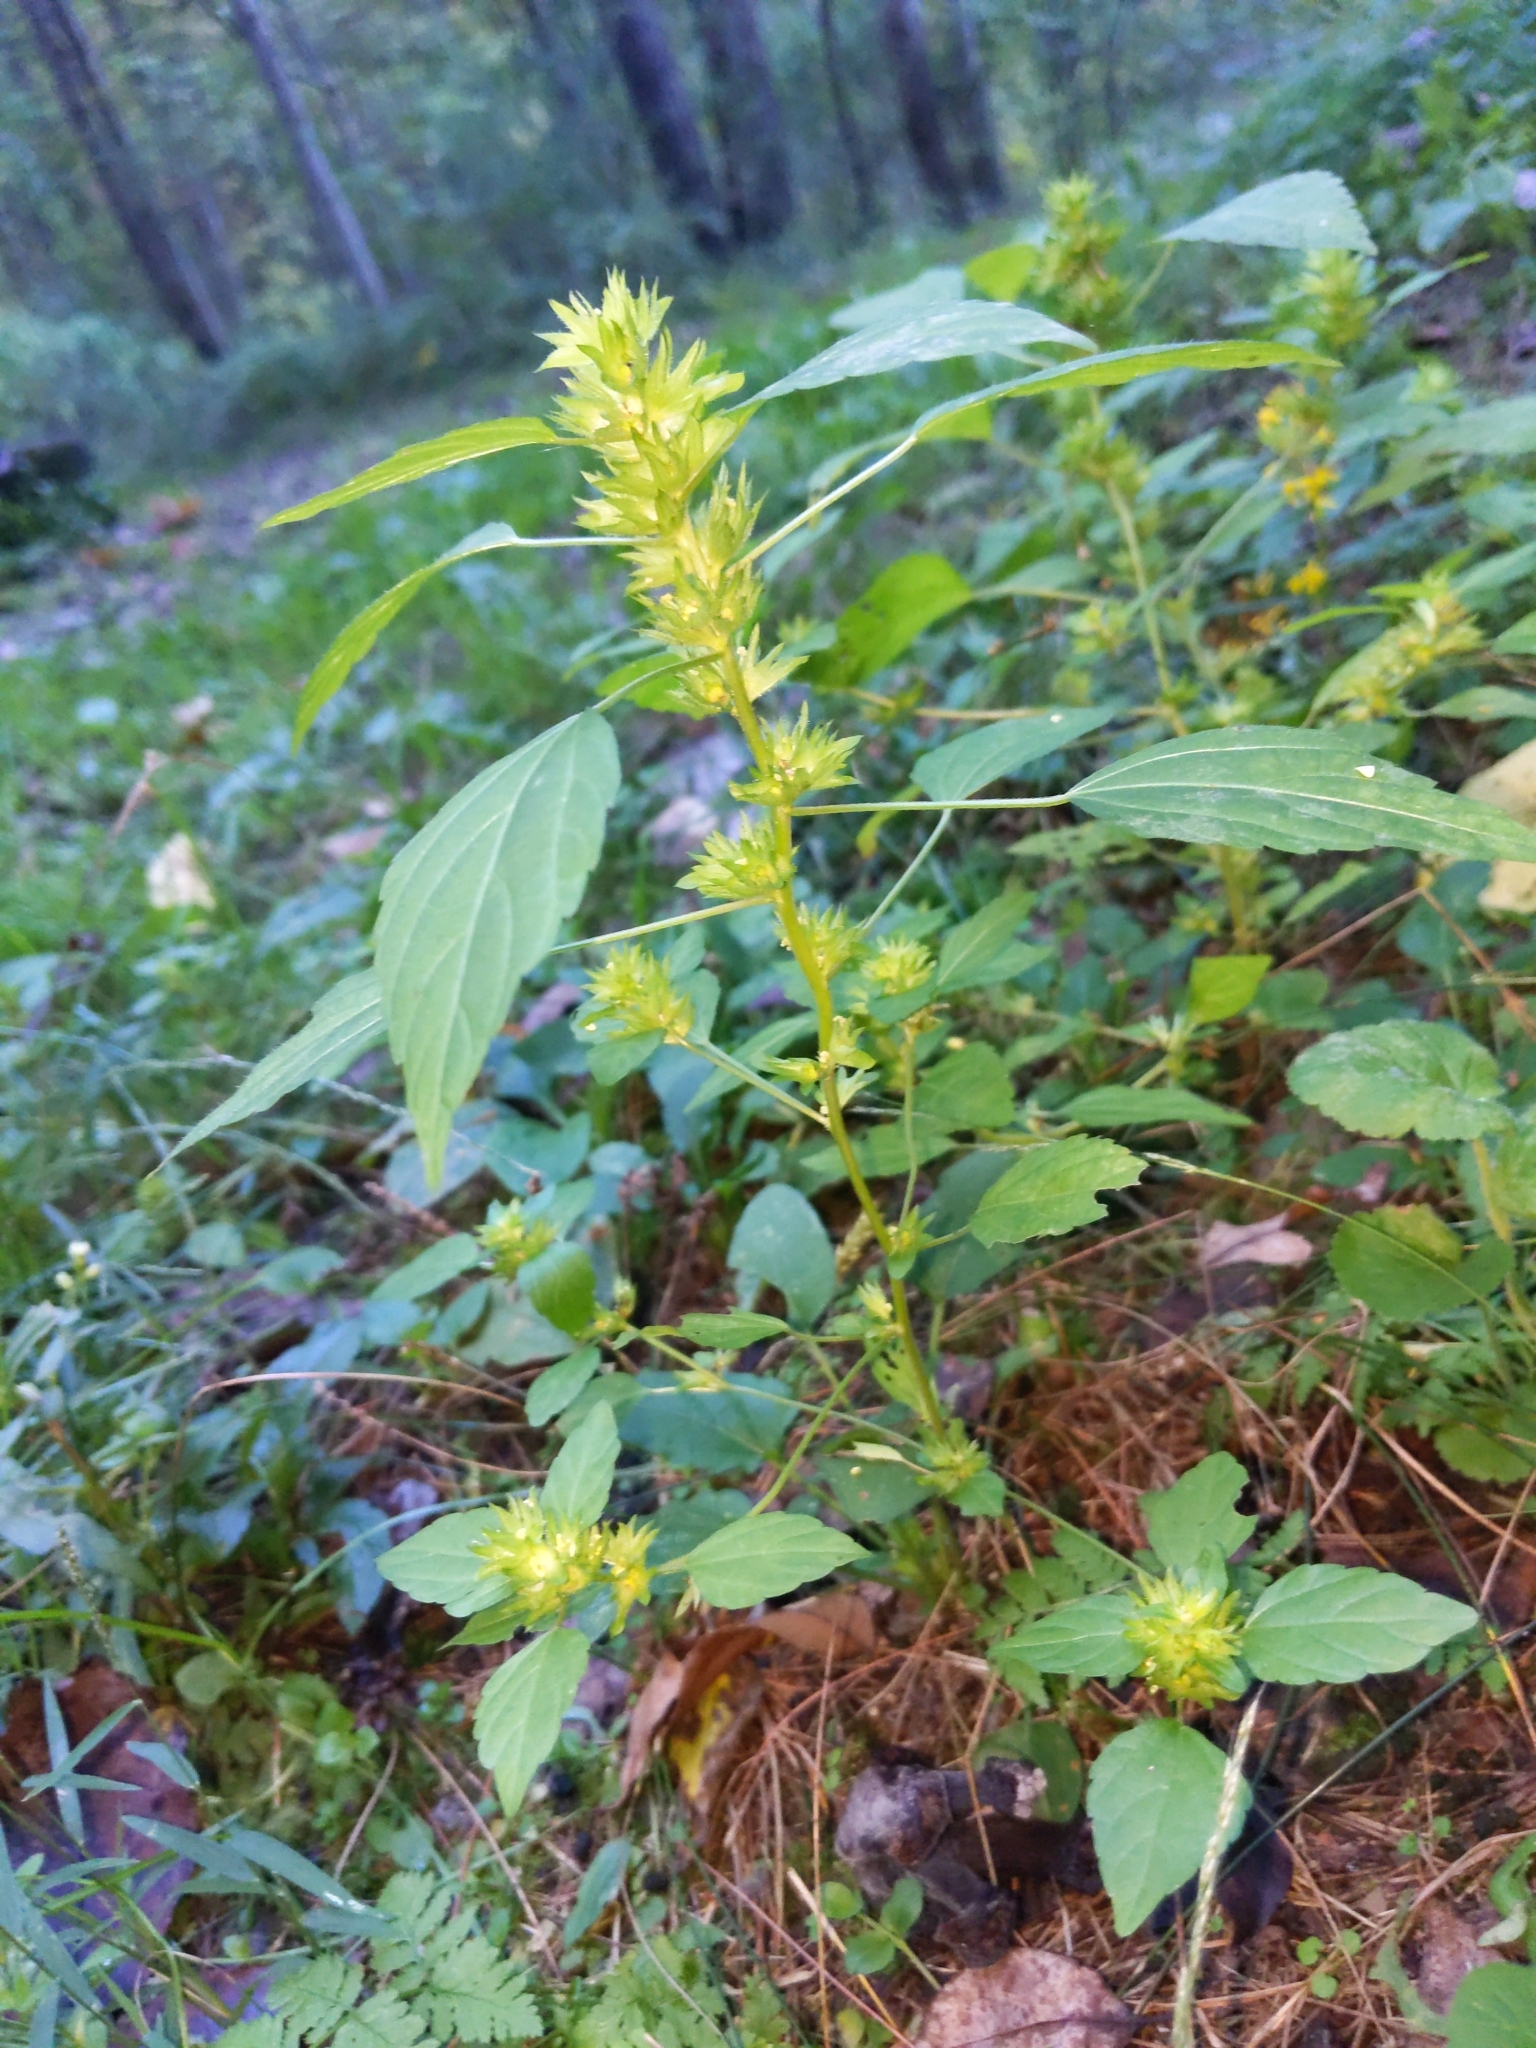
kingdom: Plantae
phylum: Tracheophyta
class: Magnoliopsida
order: Malpighiales
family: Euphorbiaceae
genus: Acalypha
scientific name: Acalypha rhomboidea
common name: Rhombic copperleaf
